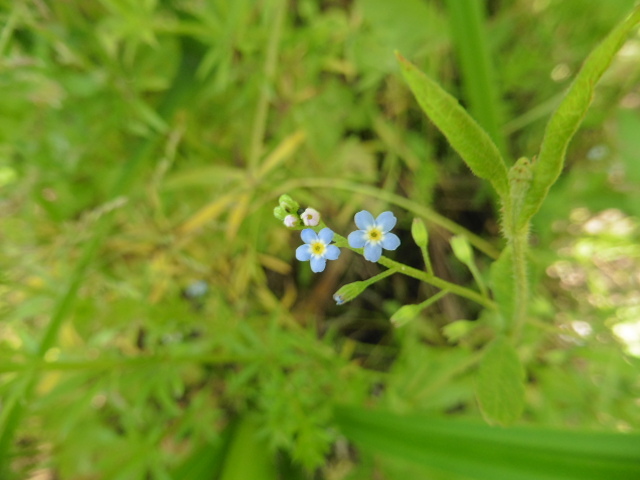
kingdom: Plantae
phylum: Tracheophyta
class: Magnoliopsida
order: Boraginales
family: Boraginaceae
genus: Myosotis
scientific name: Myosotis scorpioides
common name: Water forget-me-not
